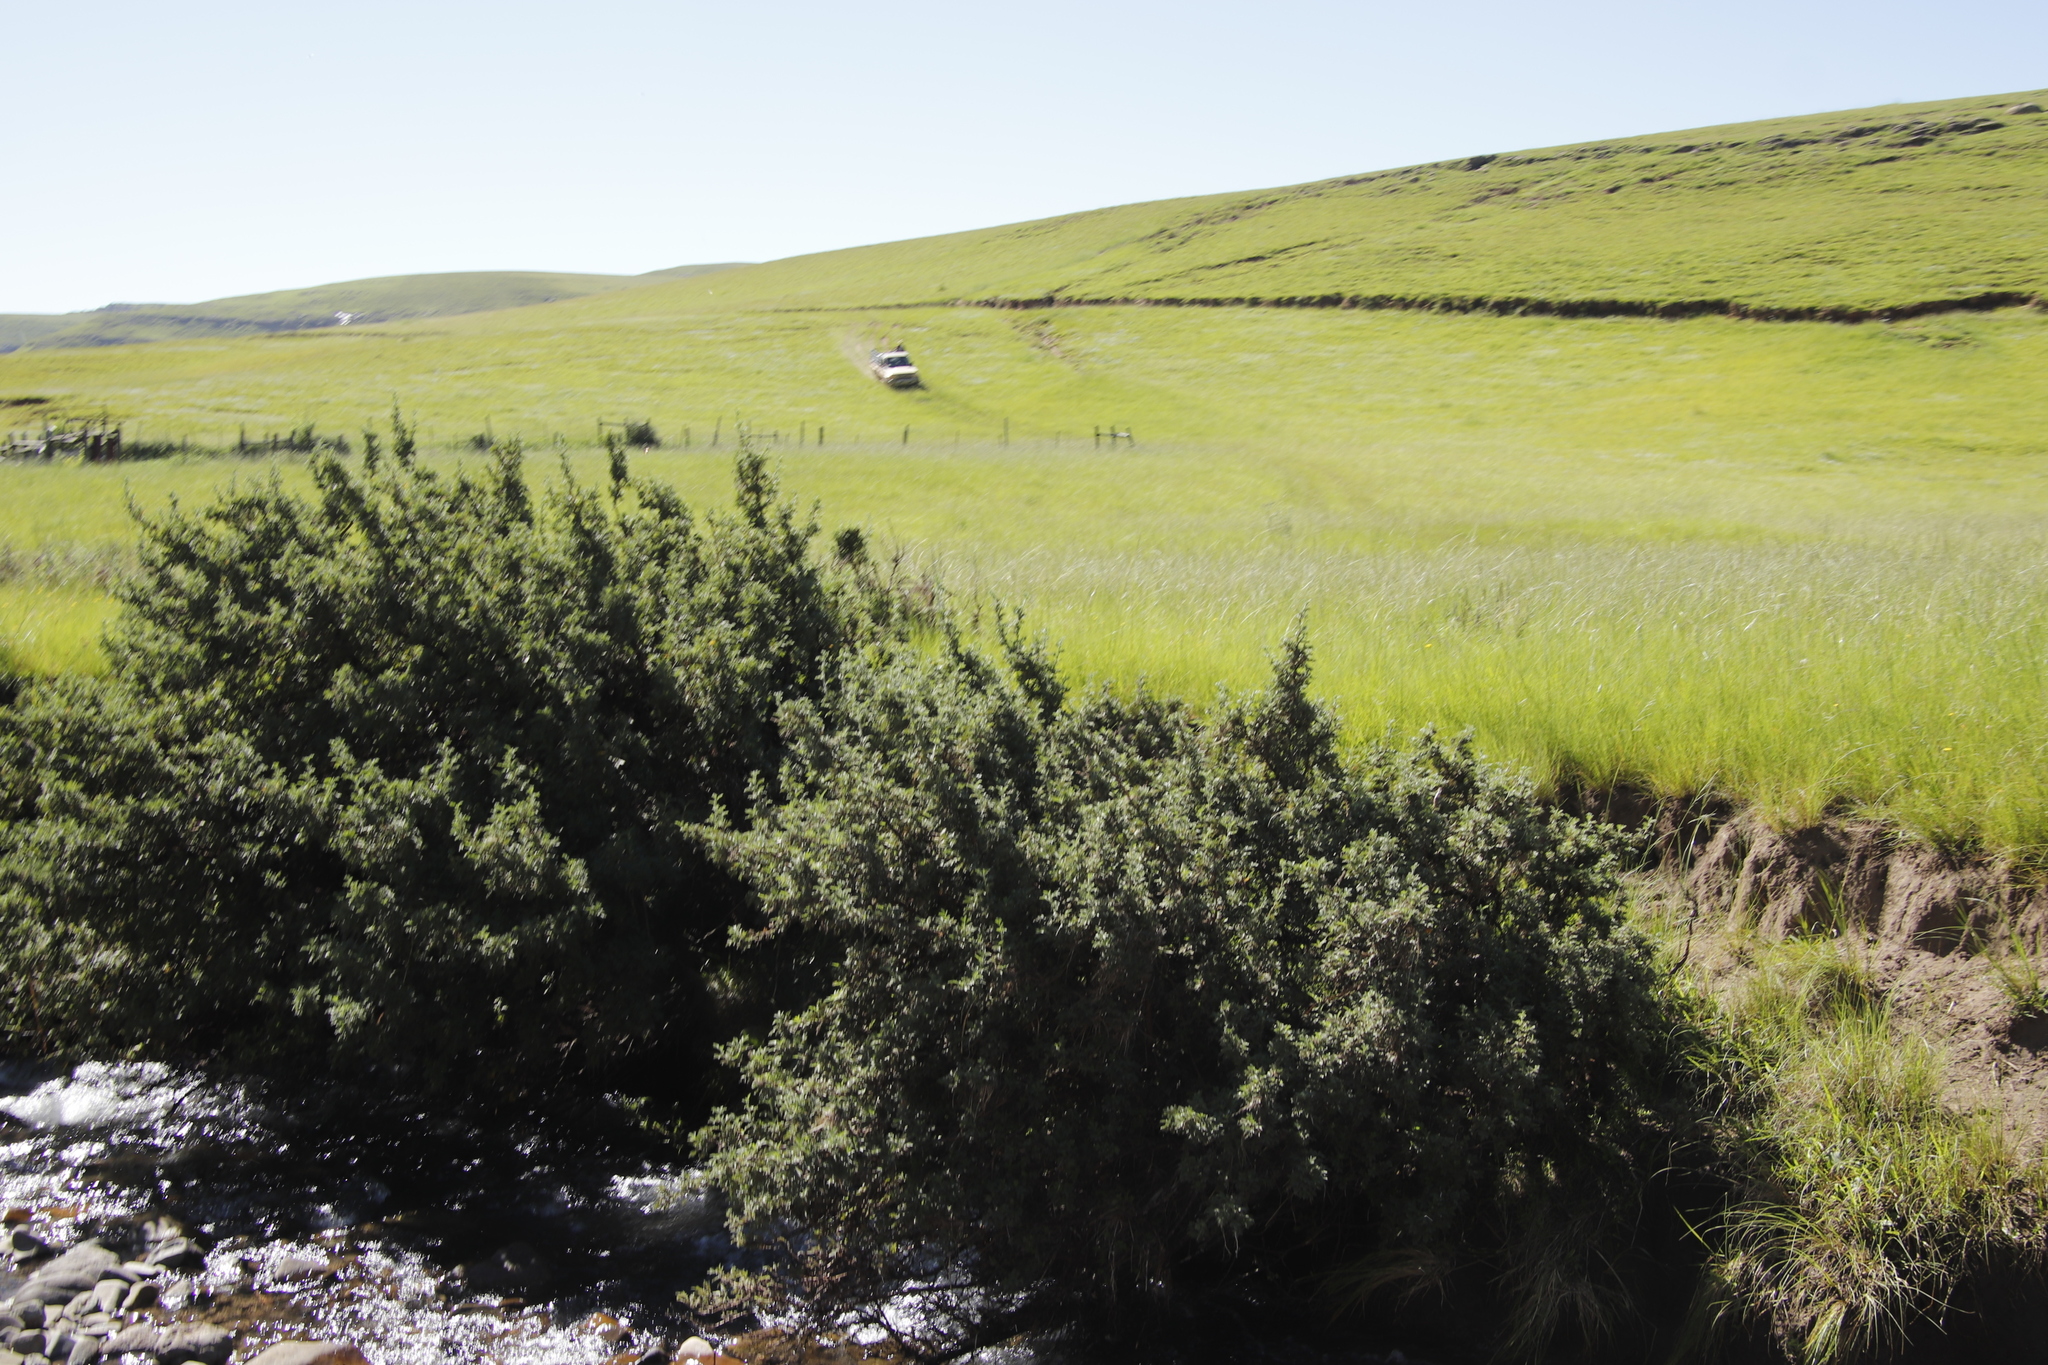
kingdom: Plantae
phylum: Tracheophyta
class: Magnoliopsida
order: Rosales
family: Rosaceae
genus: Leucosidea
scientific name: Leucosidea sericea
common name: Oldwood
